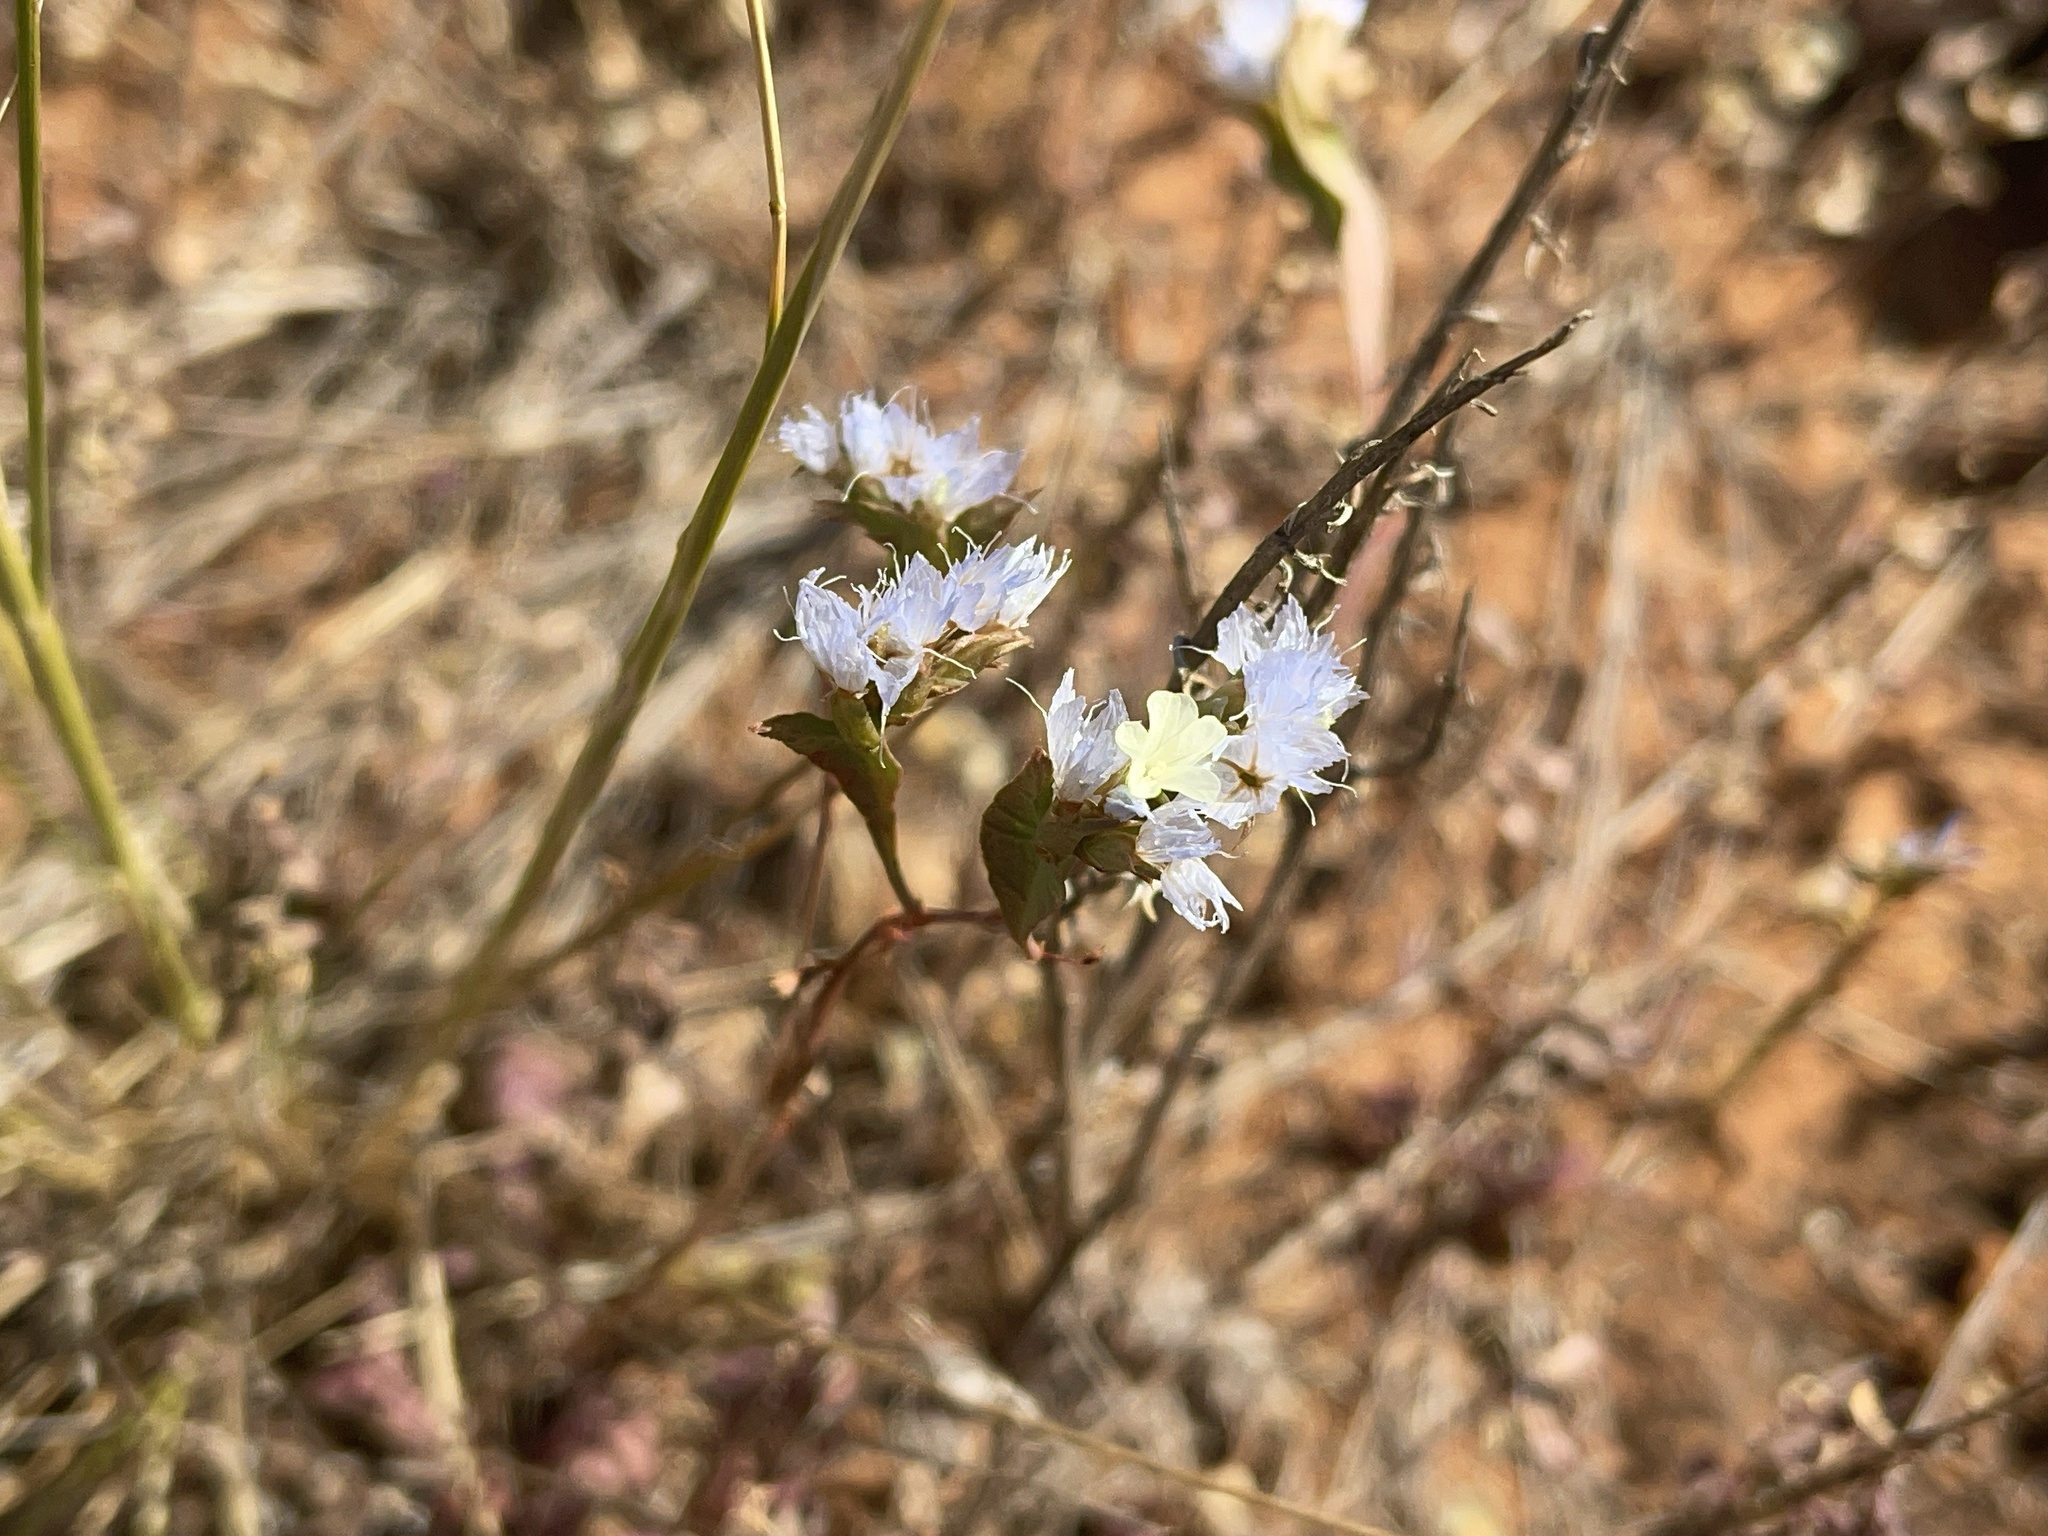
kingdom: Plantae
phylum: Tracheophyta
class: Magnoliopsida
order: Caryophyllales
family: Plumbaginaceae
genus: Limonium
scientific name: Limonium lobatum
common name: Winged sea-lavender
